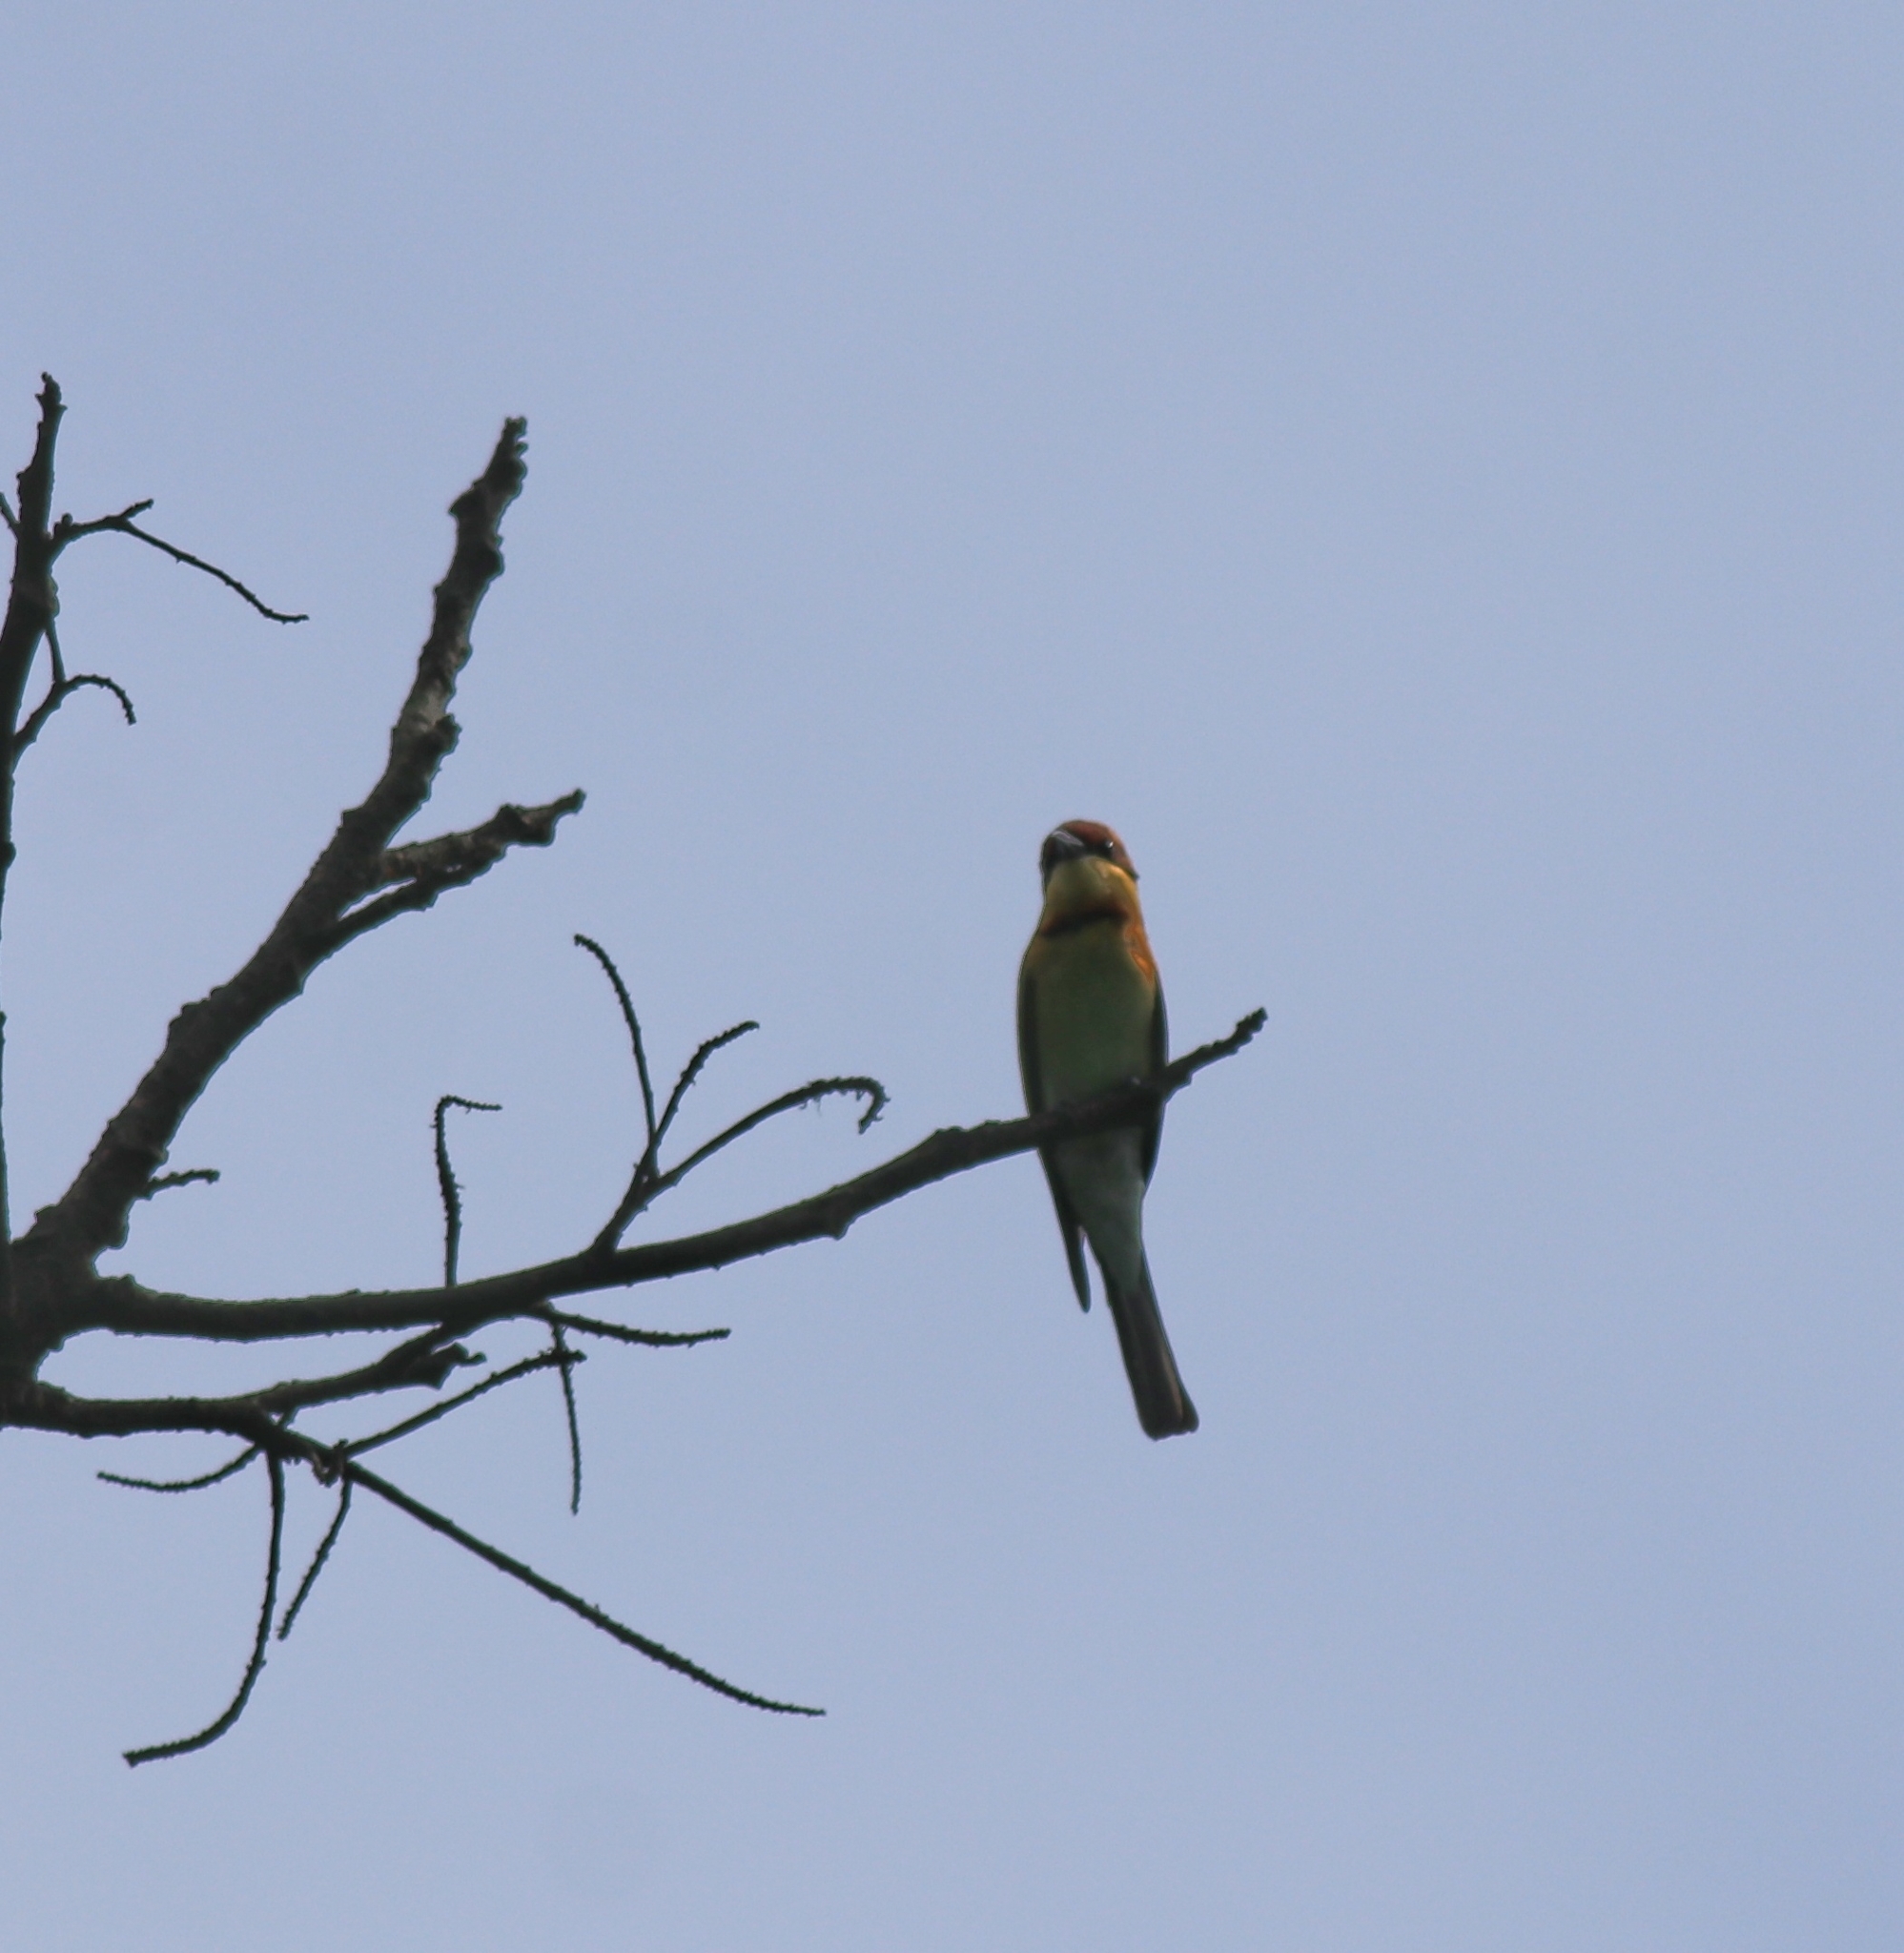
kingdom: Animalia
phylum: Chordata
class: Aves
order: Coraciiformes
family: Meropidae
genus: Merops
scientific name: Merops leschenaulti
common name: Chestnut-headed bee-eater
